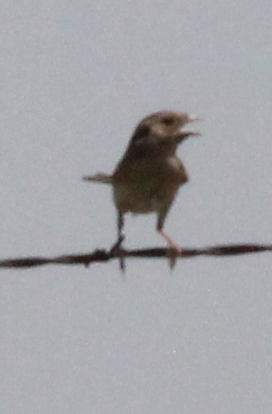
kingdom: Animalia
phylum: Chordata
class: Aves
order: Passeriformes
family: Passerellidae
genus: Ammodramus
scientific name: Ammodramus savannarum
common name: Grasshopper sparrow
